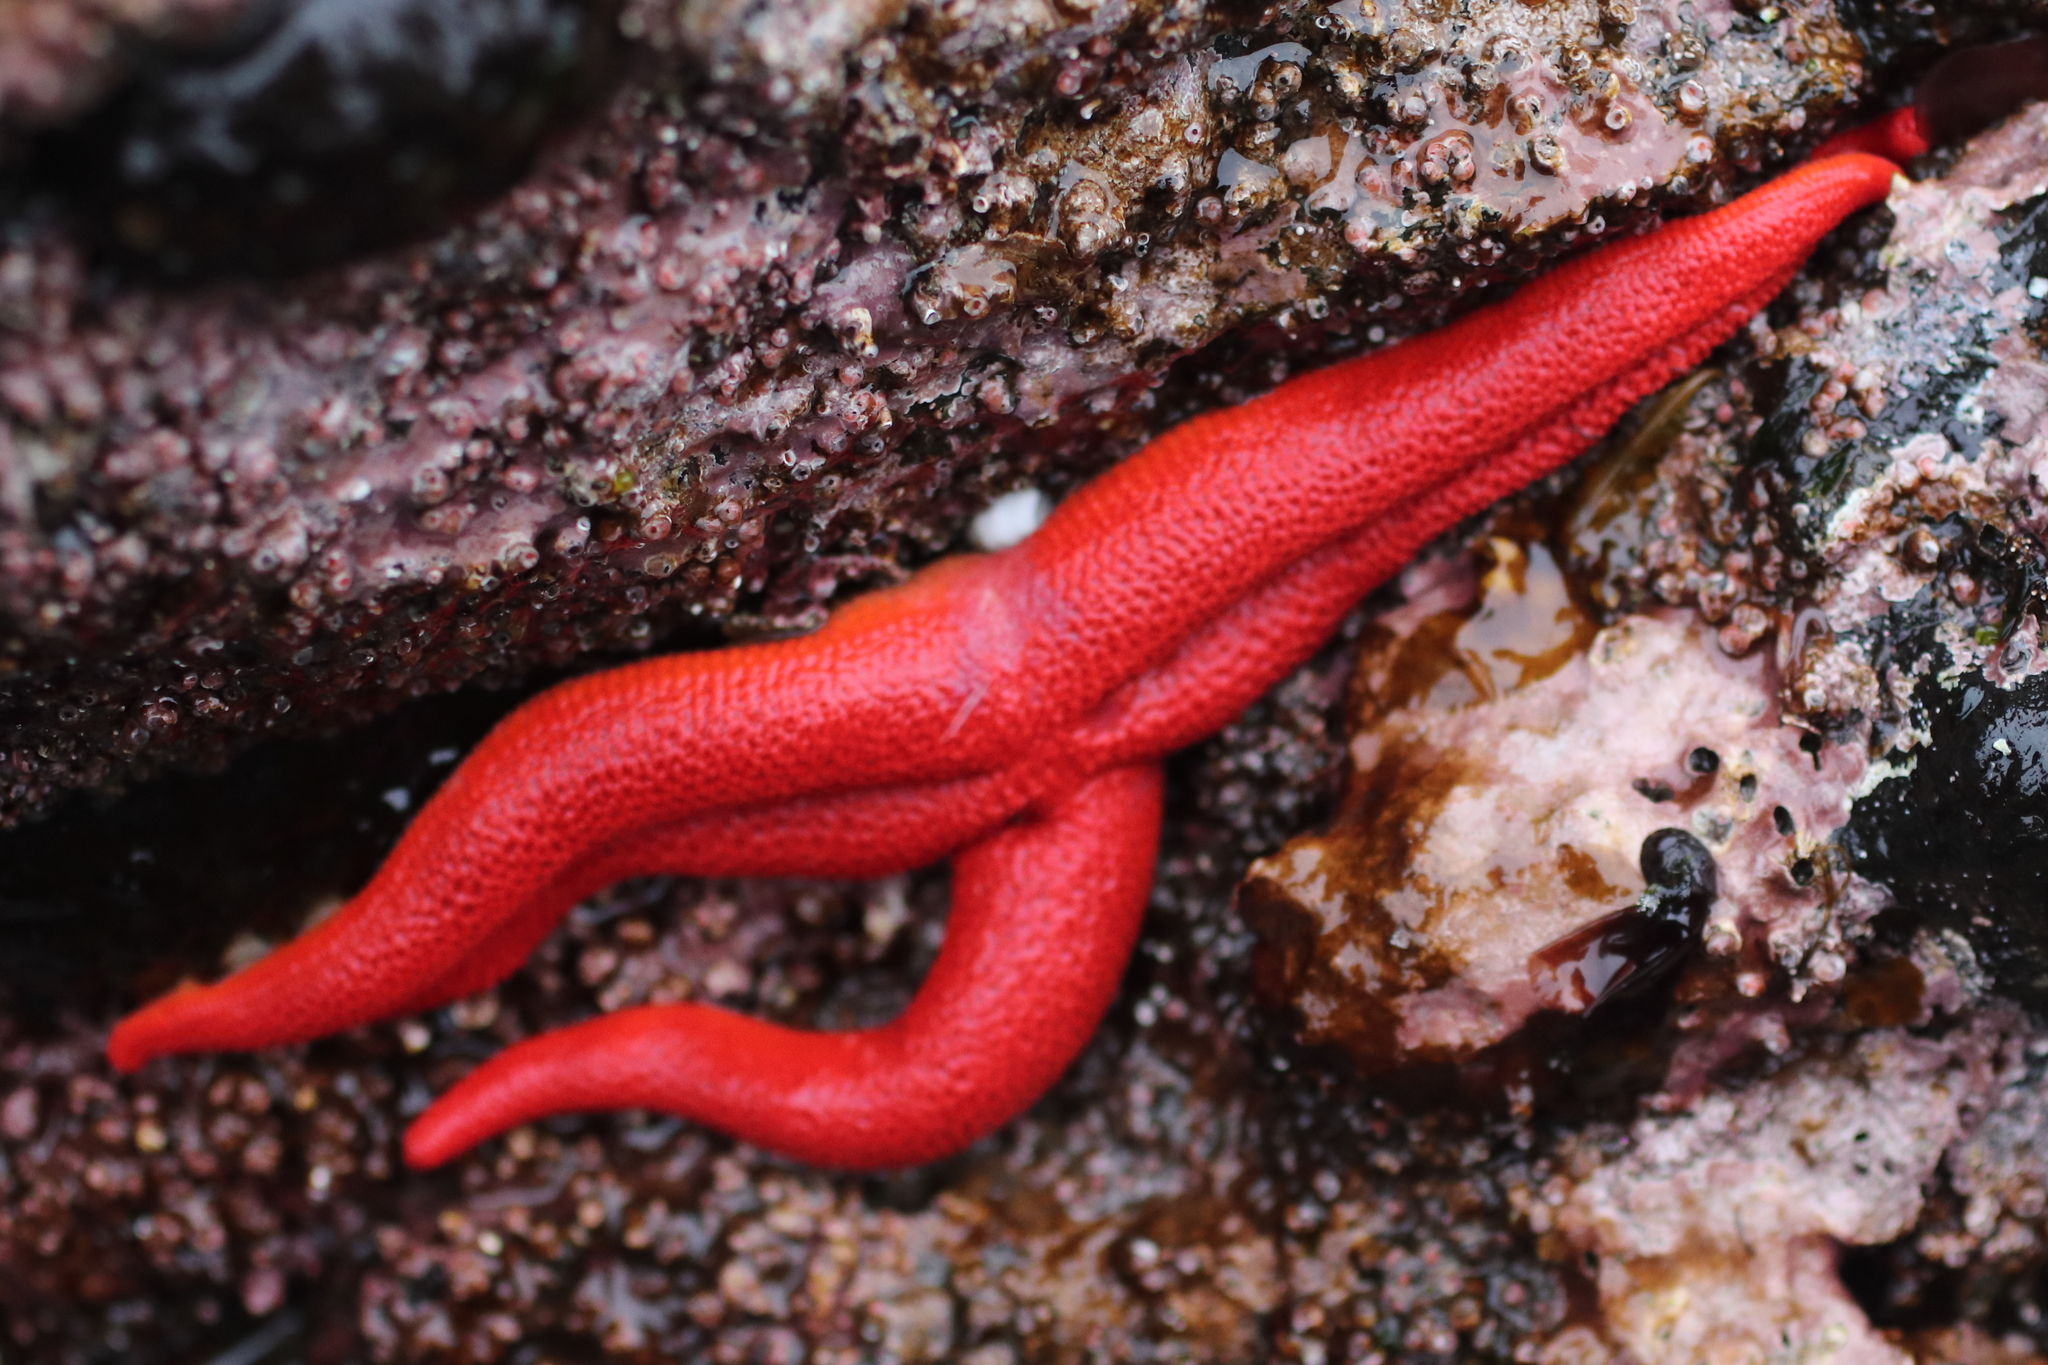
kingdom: Animalia
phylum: Echinodermata
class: Asteroidea
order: Spinulosida
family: Echinasteridae
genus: Henricia
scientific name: Henricia
